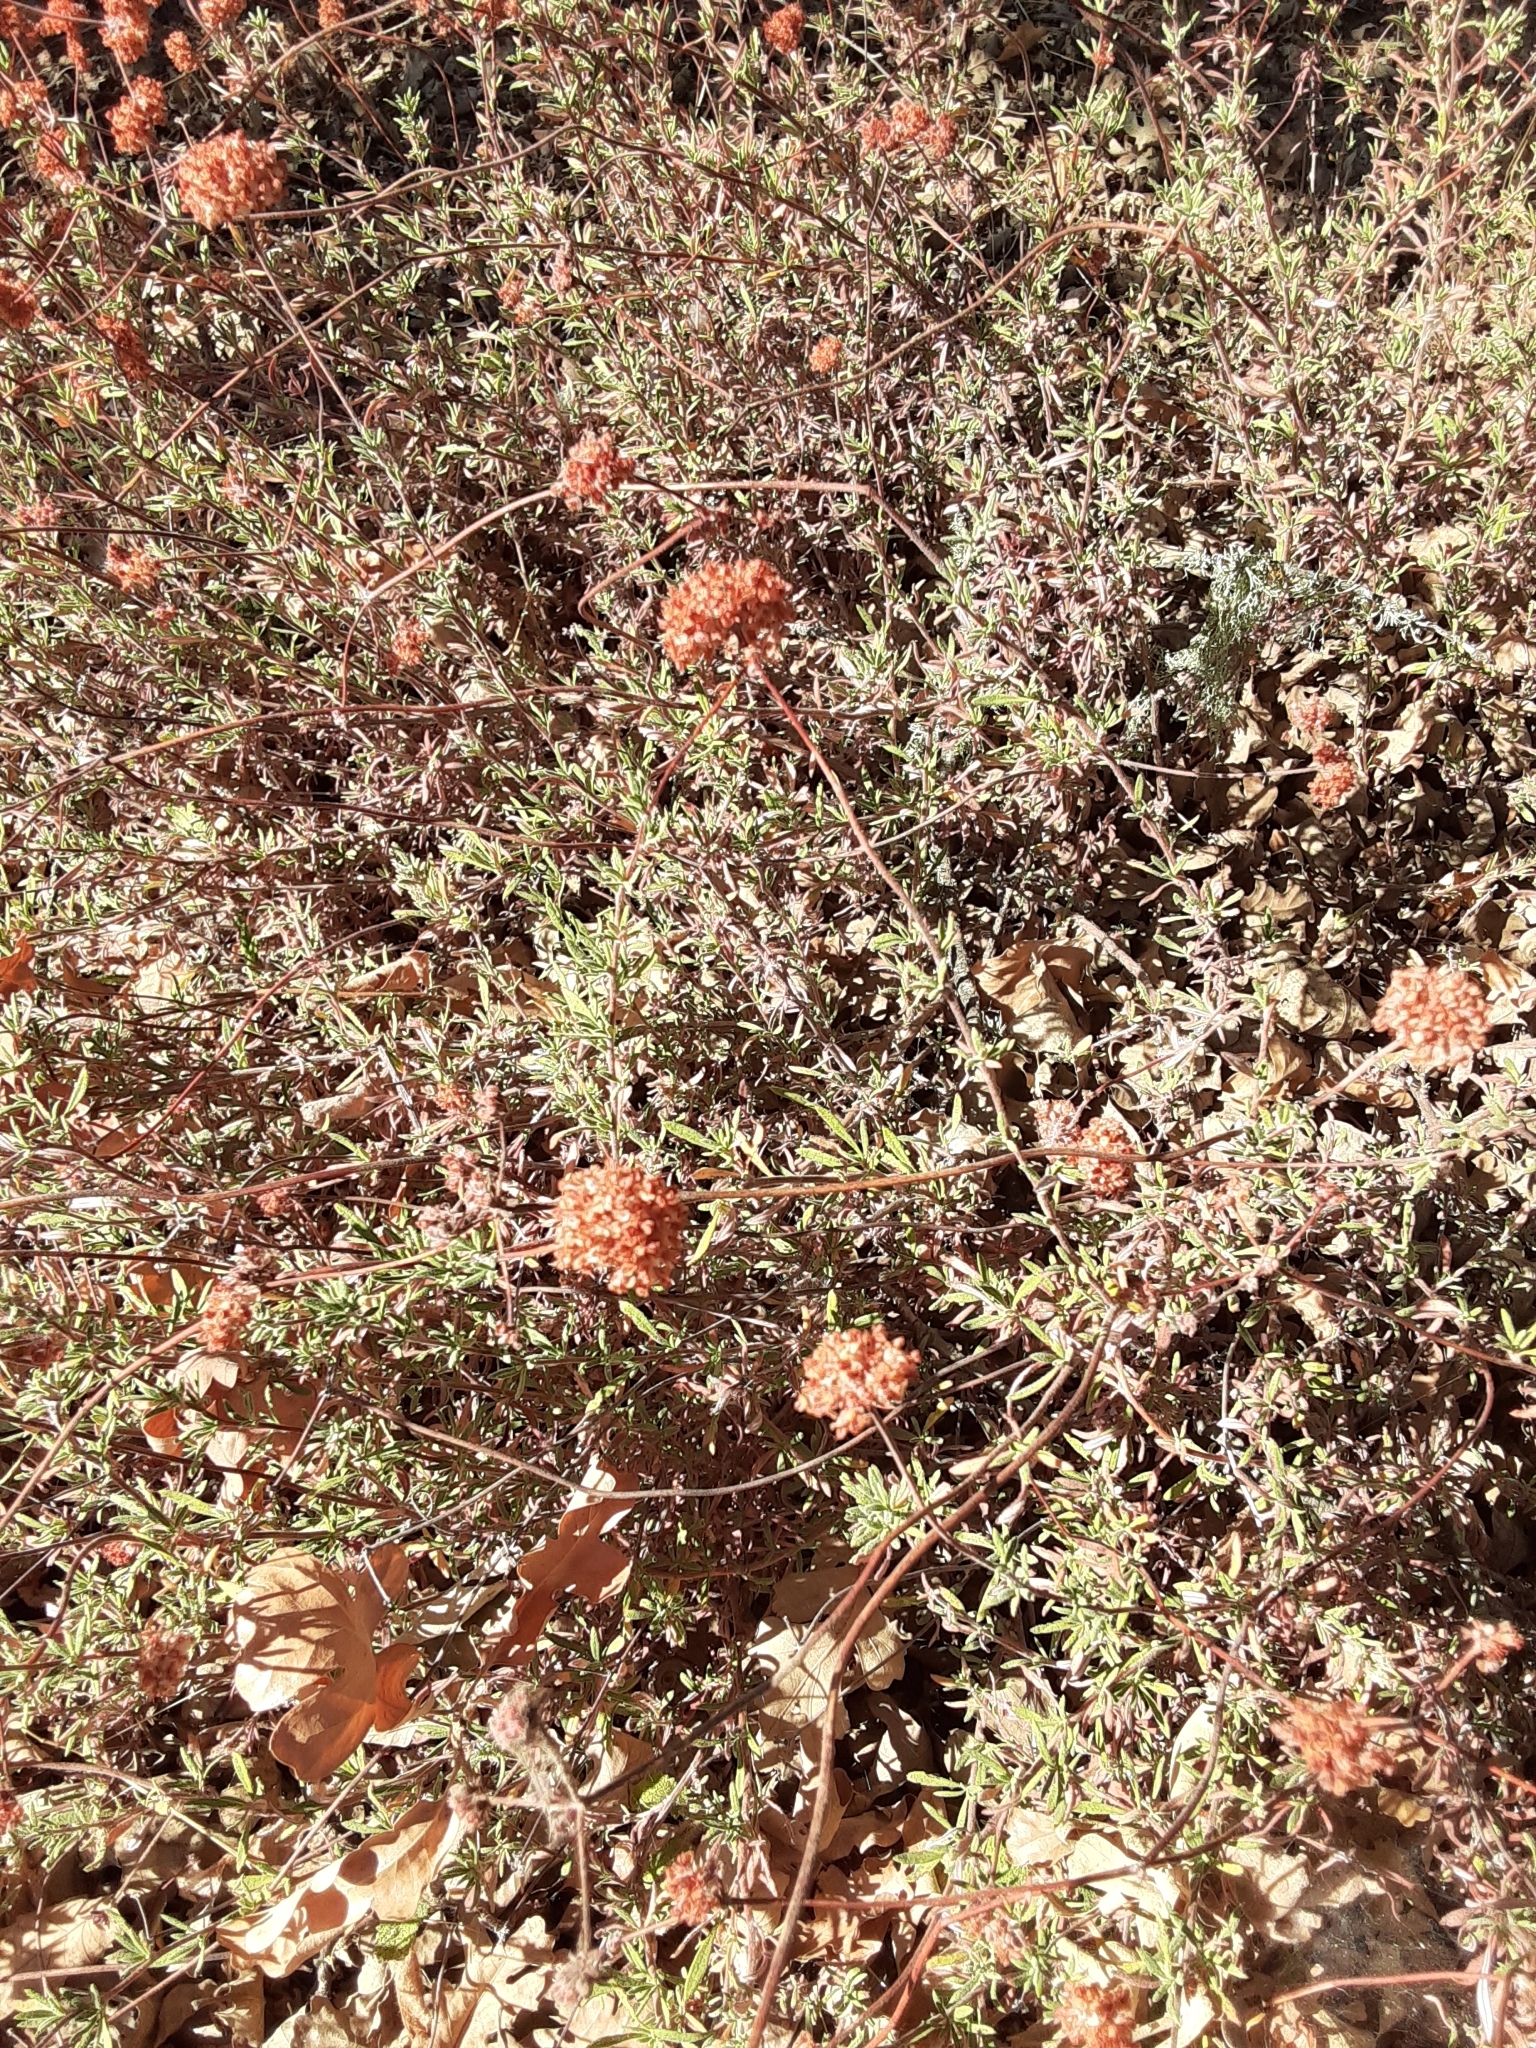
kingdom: Plantae
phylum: Tracheophyta
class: Magnoliopsida
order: Caryophyllales
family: Polygonaceae
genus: Eriogonum
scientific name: Eriogonum fasciculatum
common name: California wild buckwheat
